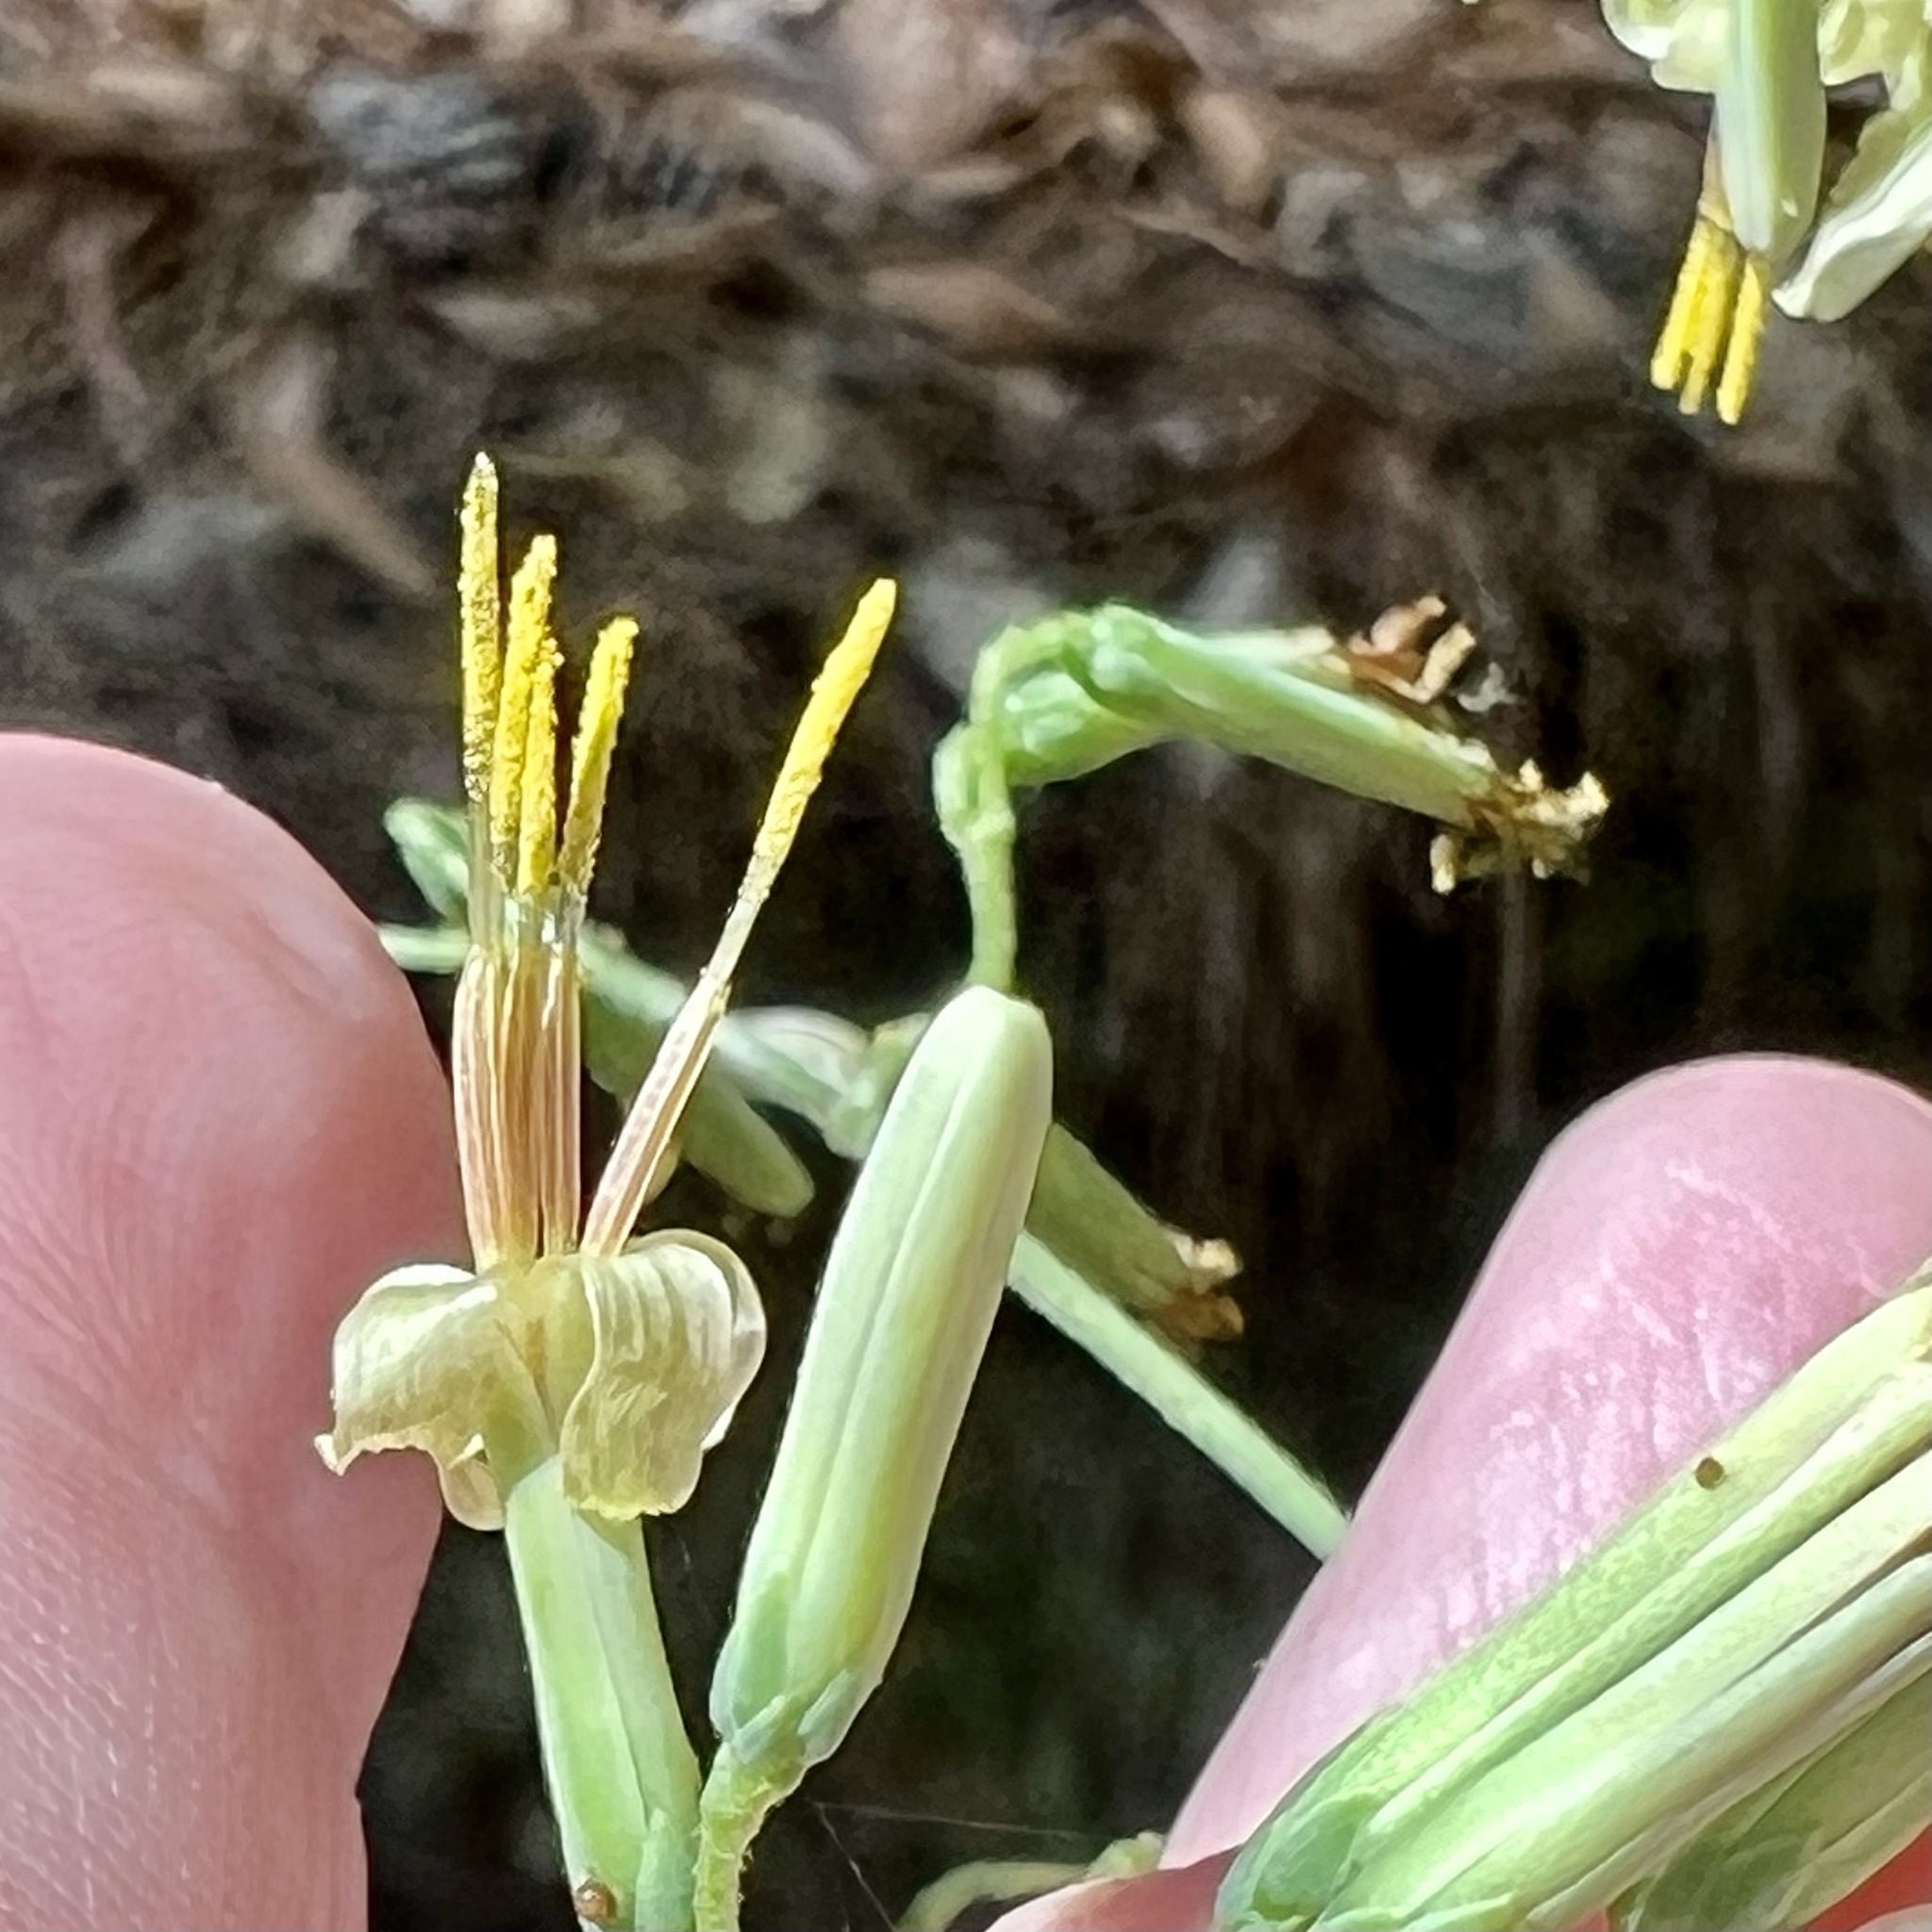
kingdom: Plantae
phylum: Tracheophyta
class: Magnoliopsida
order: Asterales
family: Asteraceae
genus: Nabalus
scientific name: Nabalus altissima
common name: Tall rattlesnakeroot
